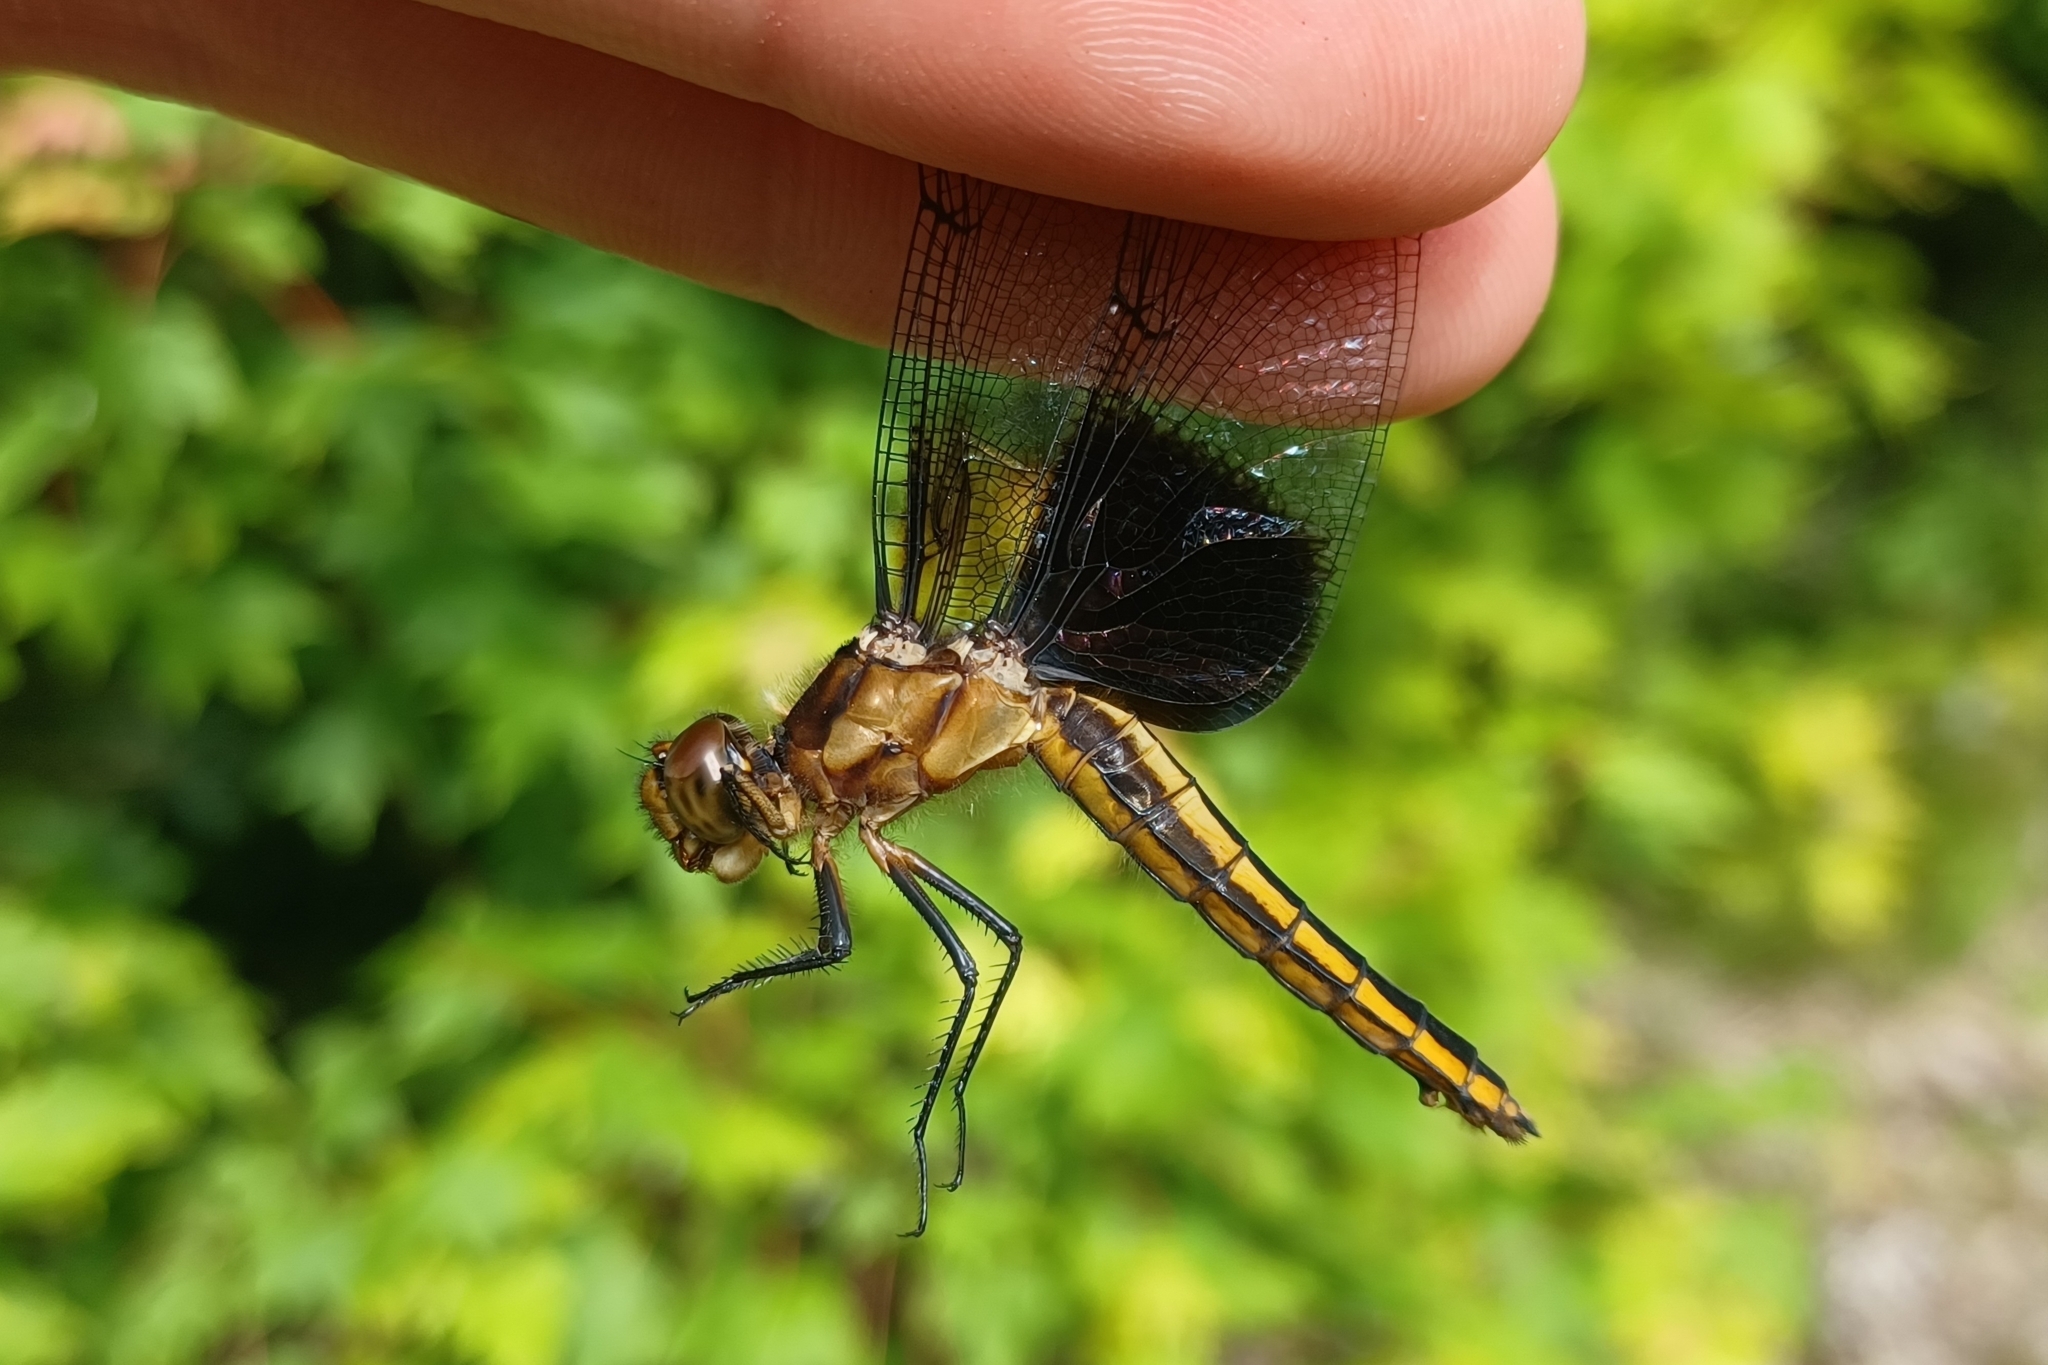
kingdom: Animalia
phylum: Arthropoda
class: Insecta
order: Odonata
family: Libellulidae
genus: Libellula
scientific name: Libellula luctuosa
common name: Widow skimmer
